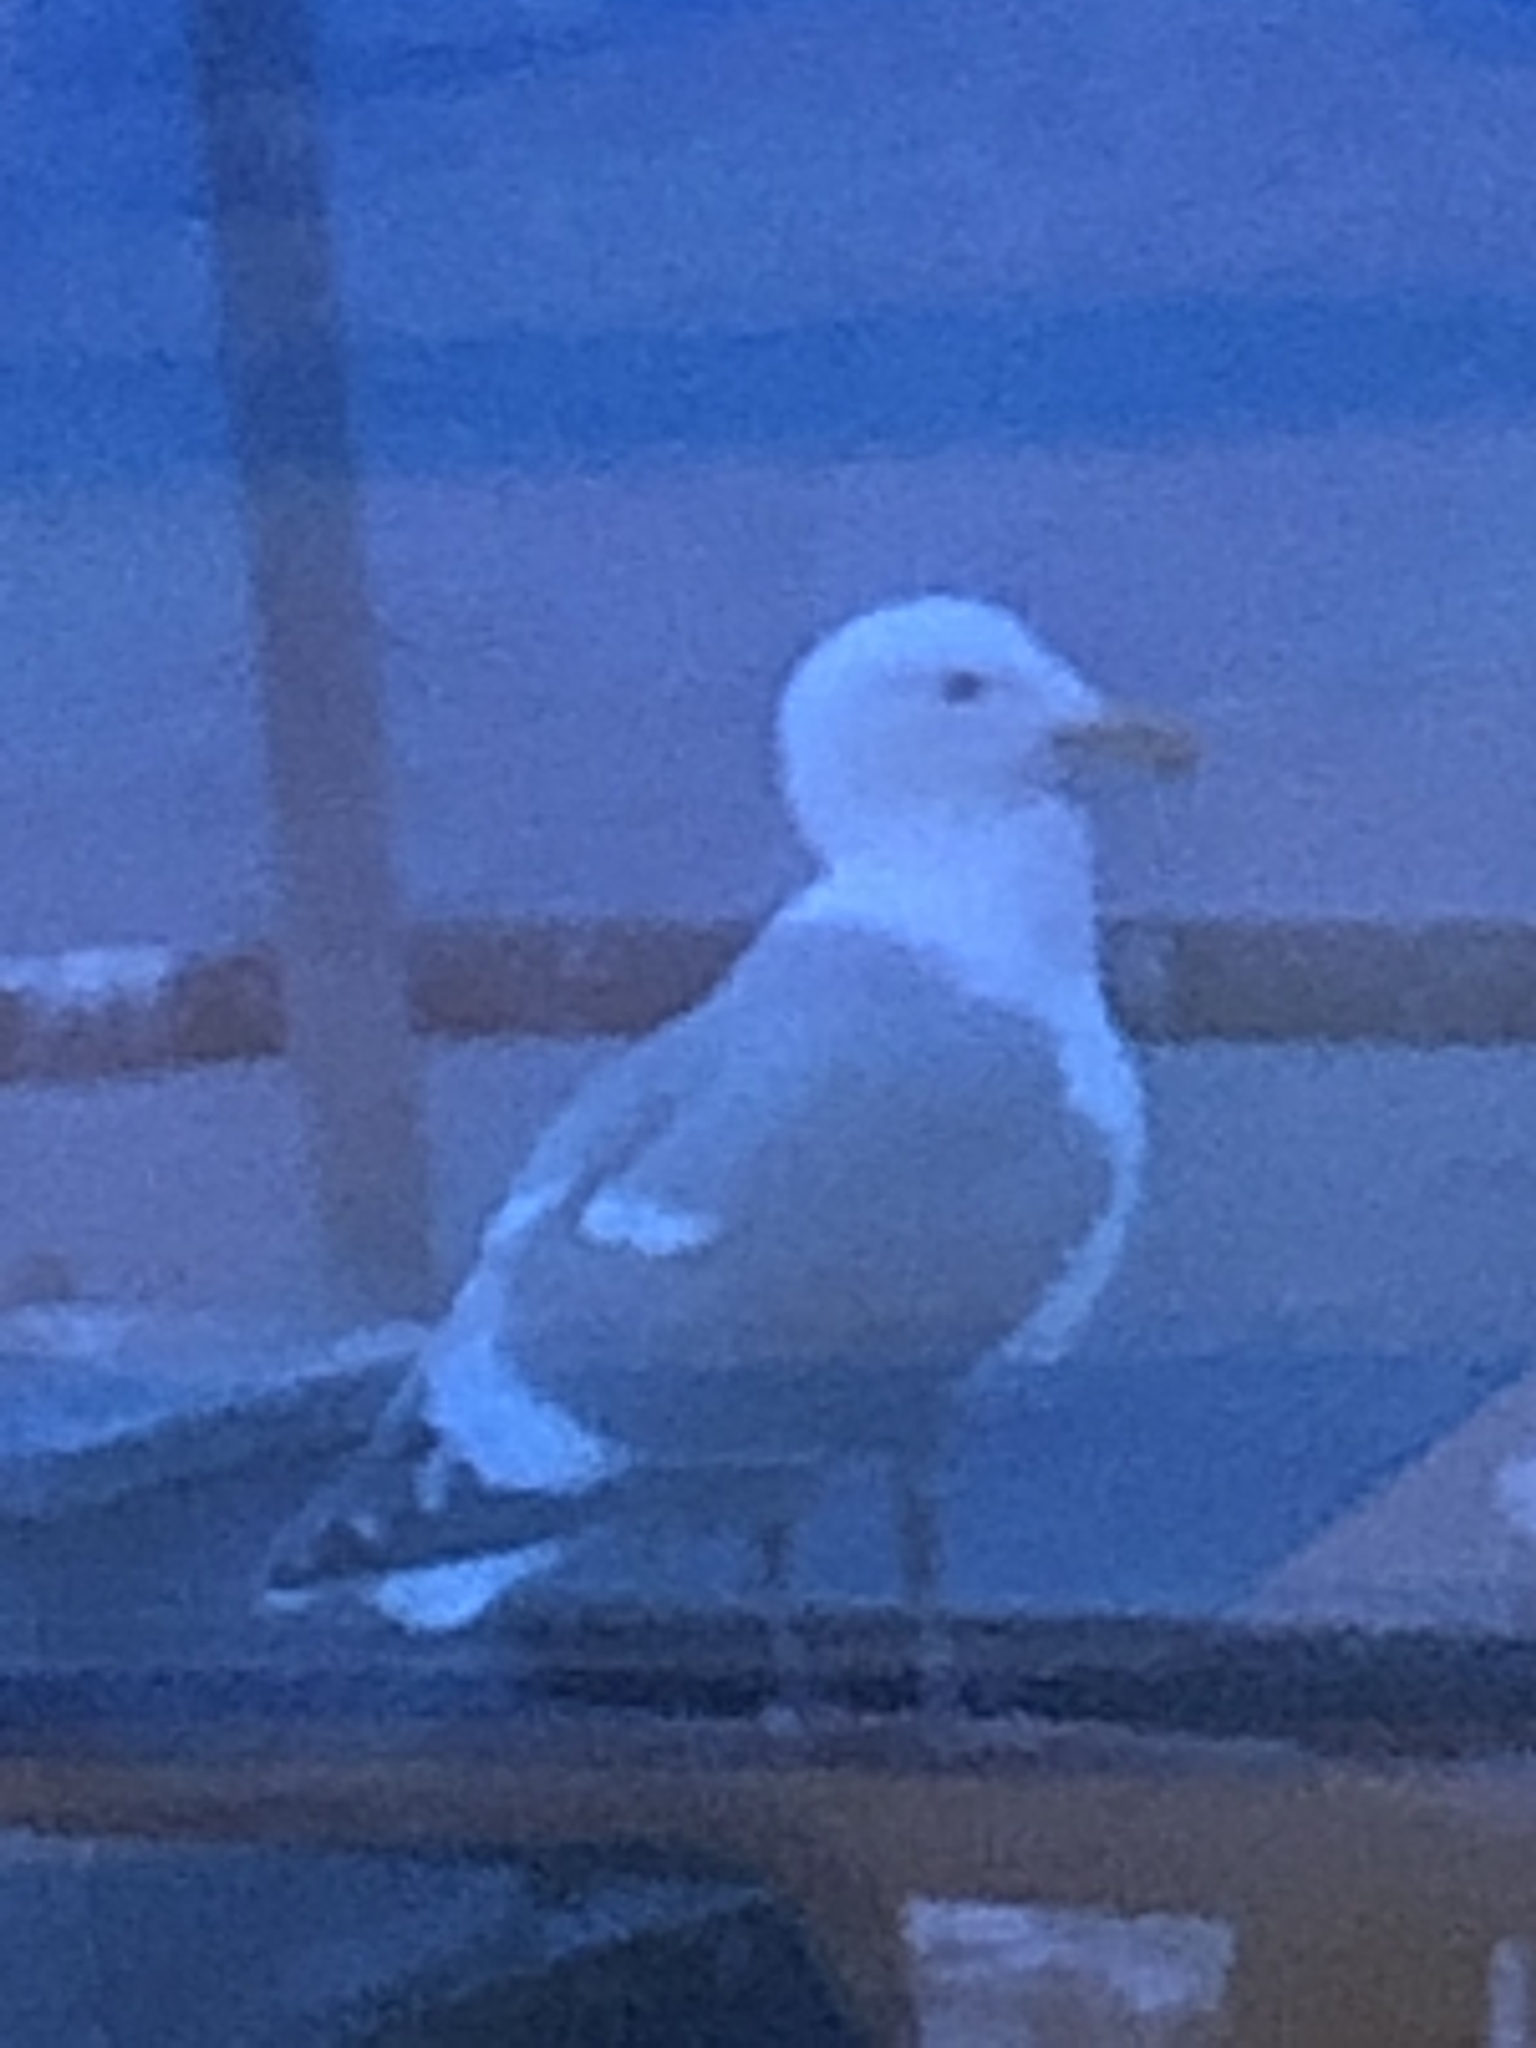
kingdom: Animalia
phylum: Chordata
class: Aves
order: Charadriiformes
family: Laridae
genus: Larus
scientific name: Larus
